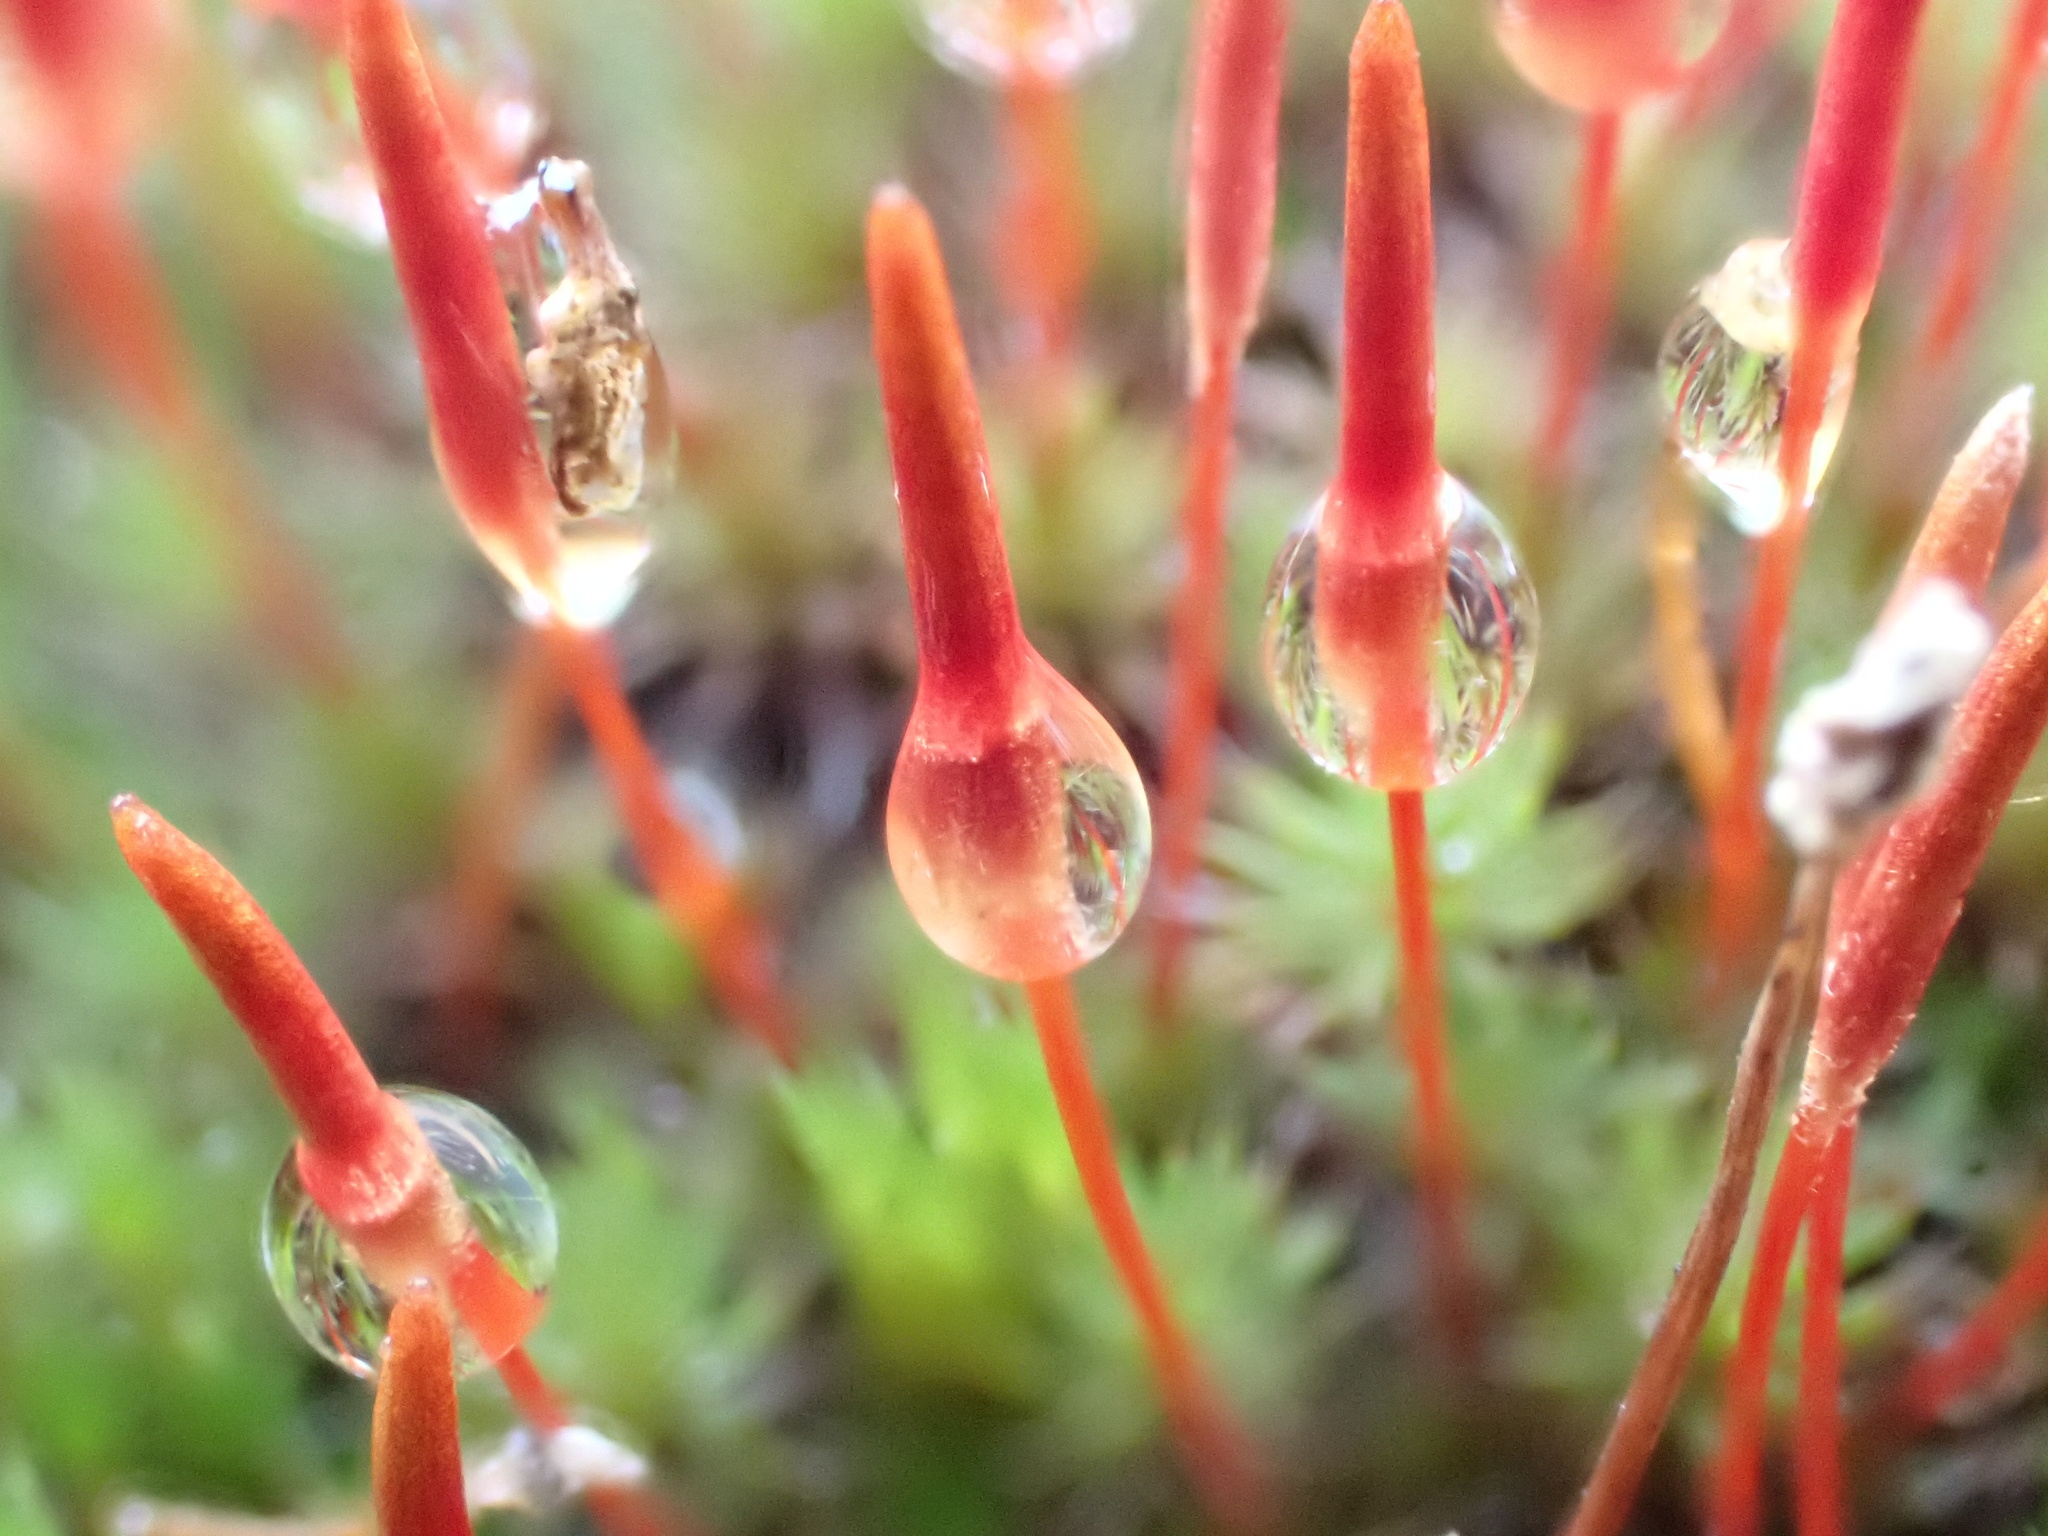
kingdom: Plantae
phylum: Bryophyta
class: Polytrichopsida
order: Polytrichales
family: Polytrichaceae
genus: Polytrichum
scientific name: Polytrichum piliferum
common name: Bristly haircap
